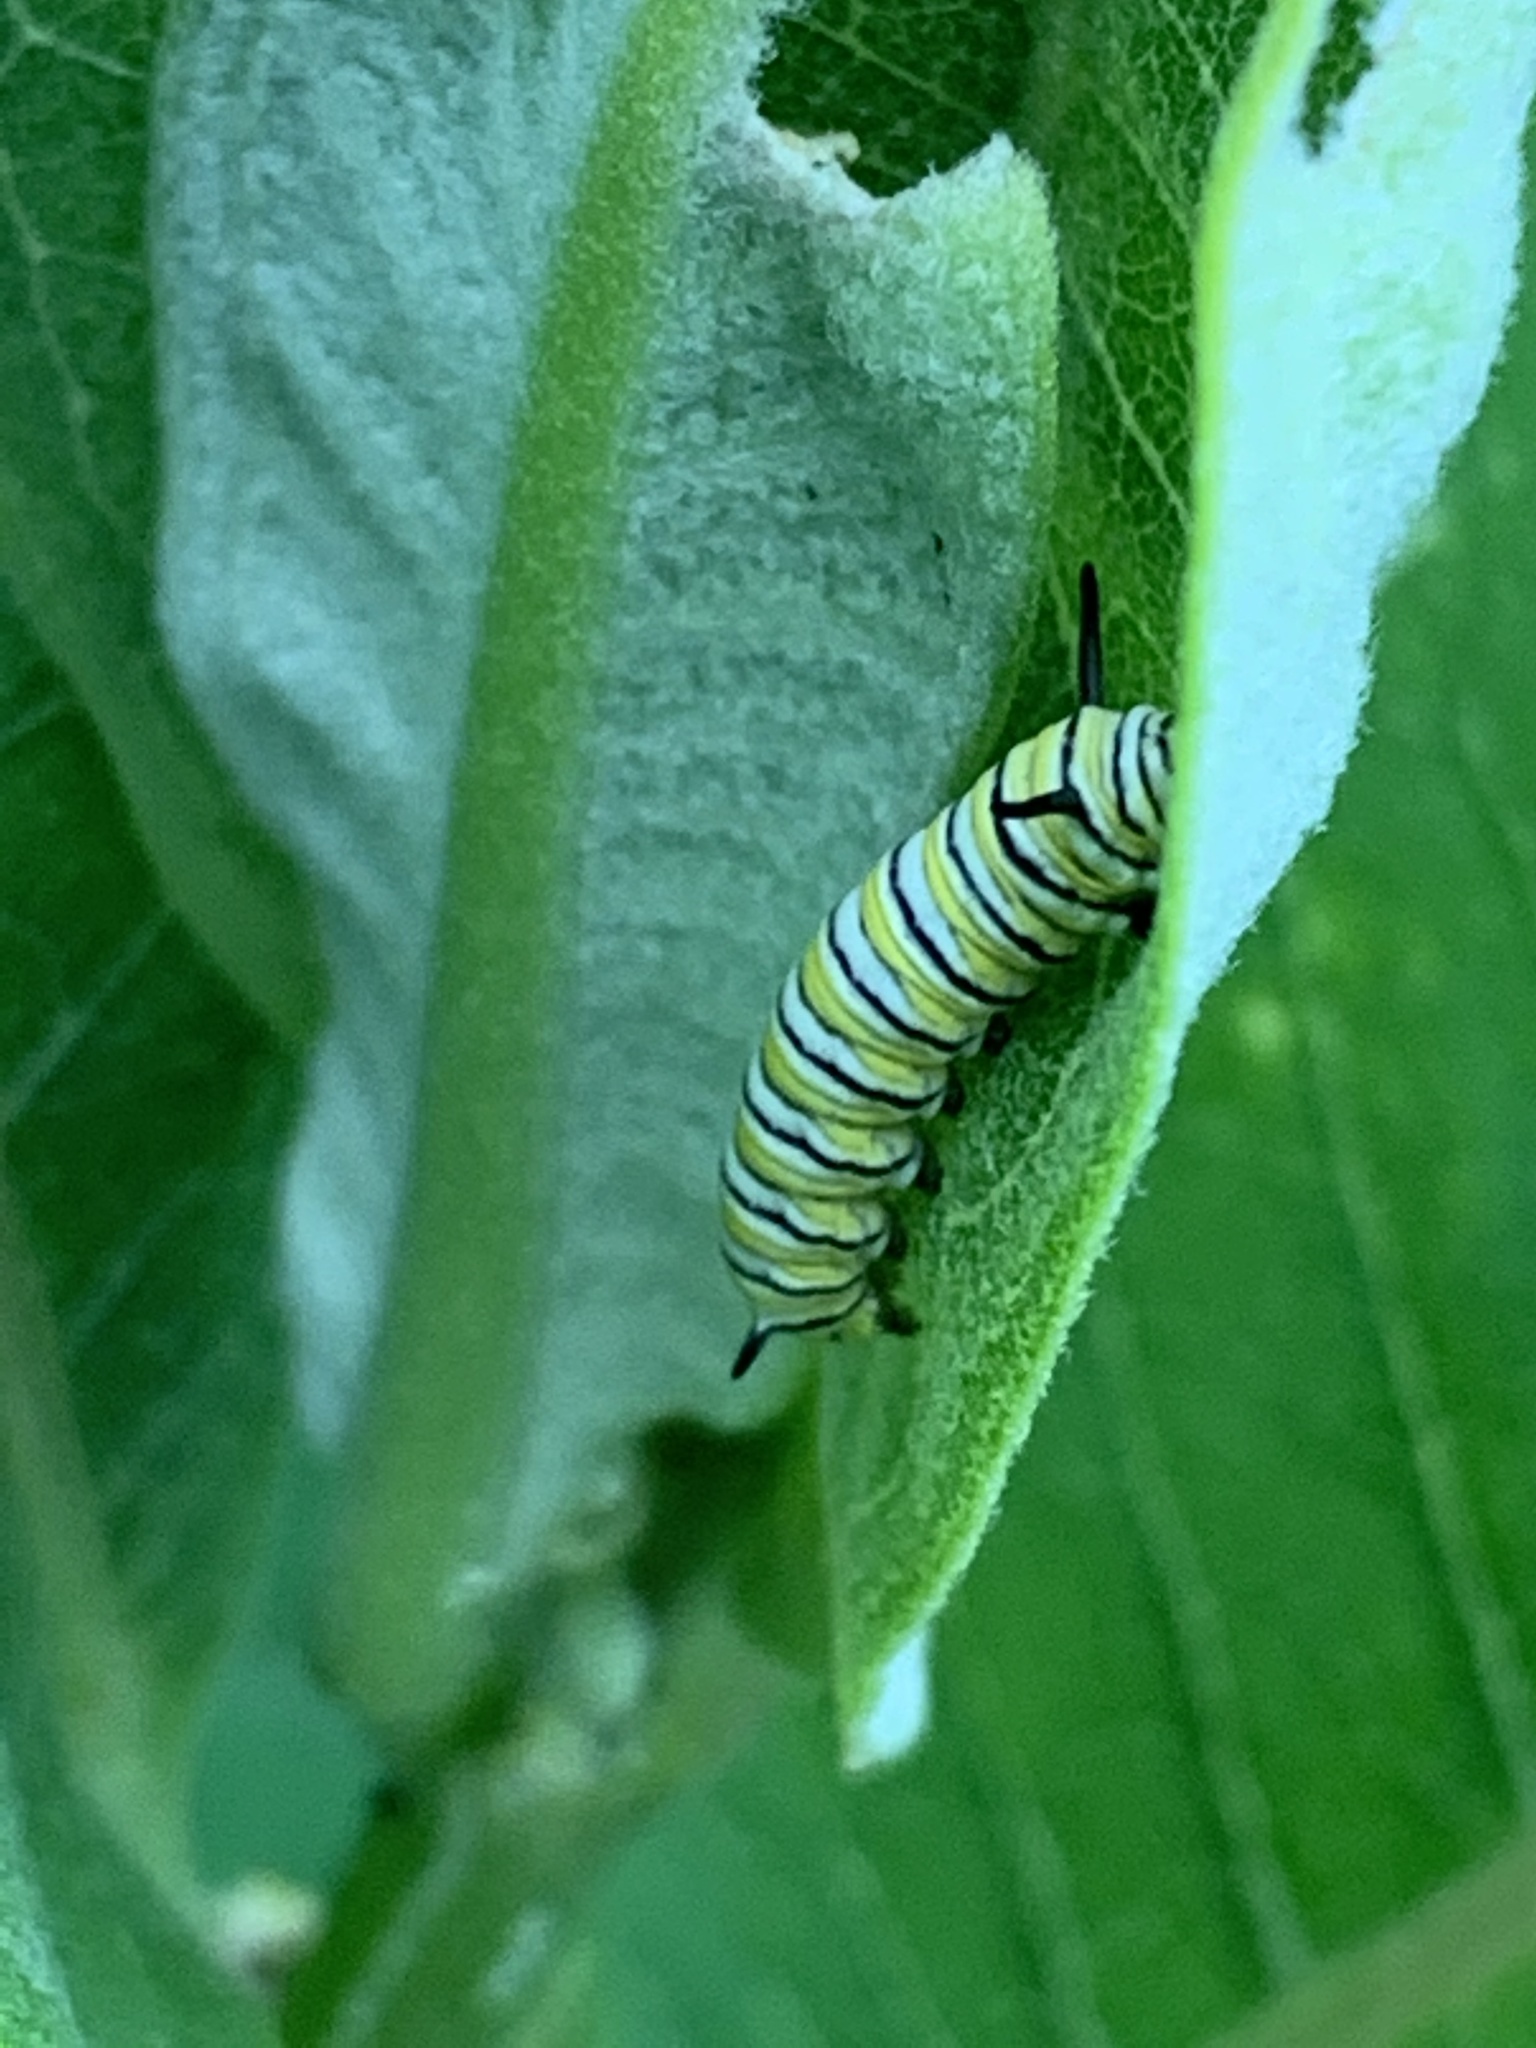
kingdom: Animalia
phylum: Arthropoda
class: Insecta
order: Lepidoptera
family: Nymphalidae
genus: Danaus
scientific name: Danaus plexippus
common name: Monarch
